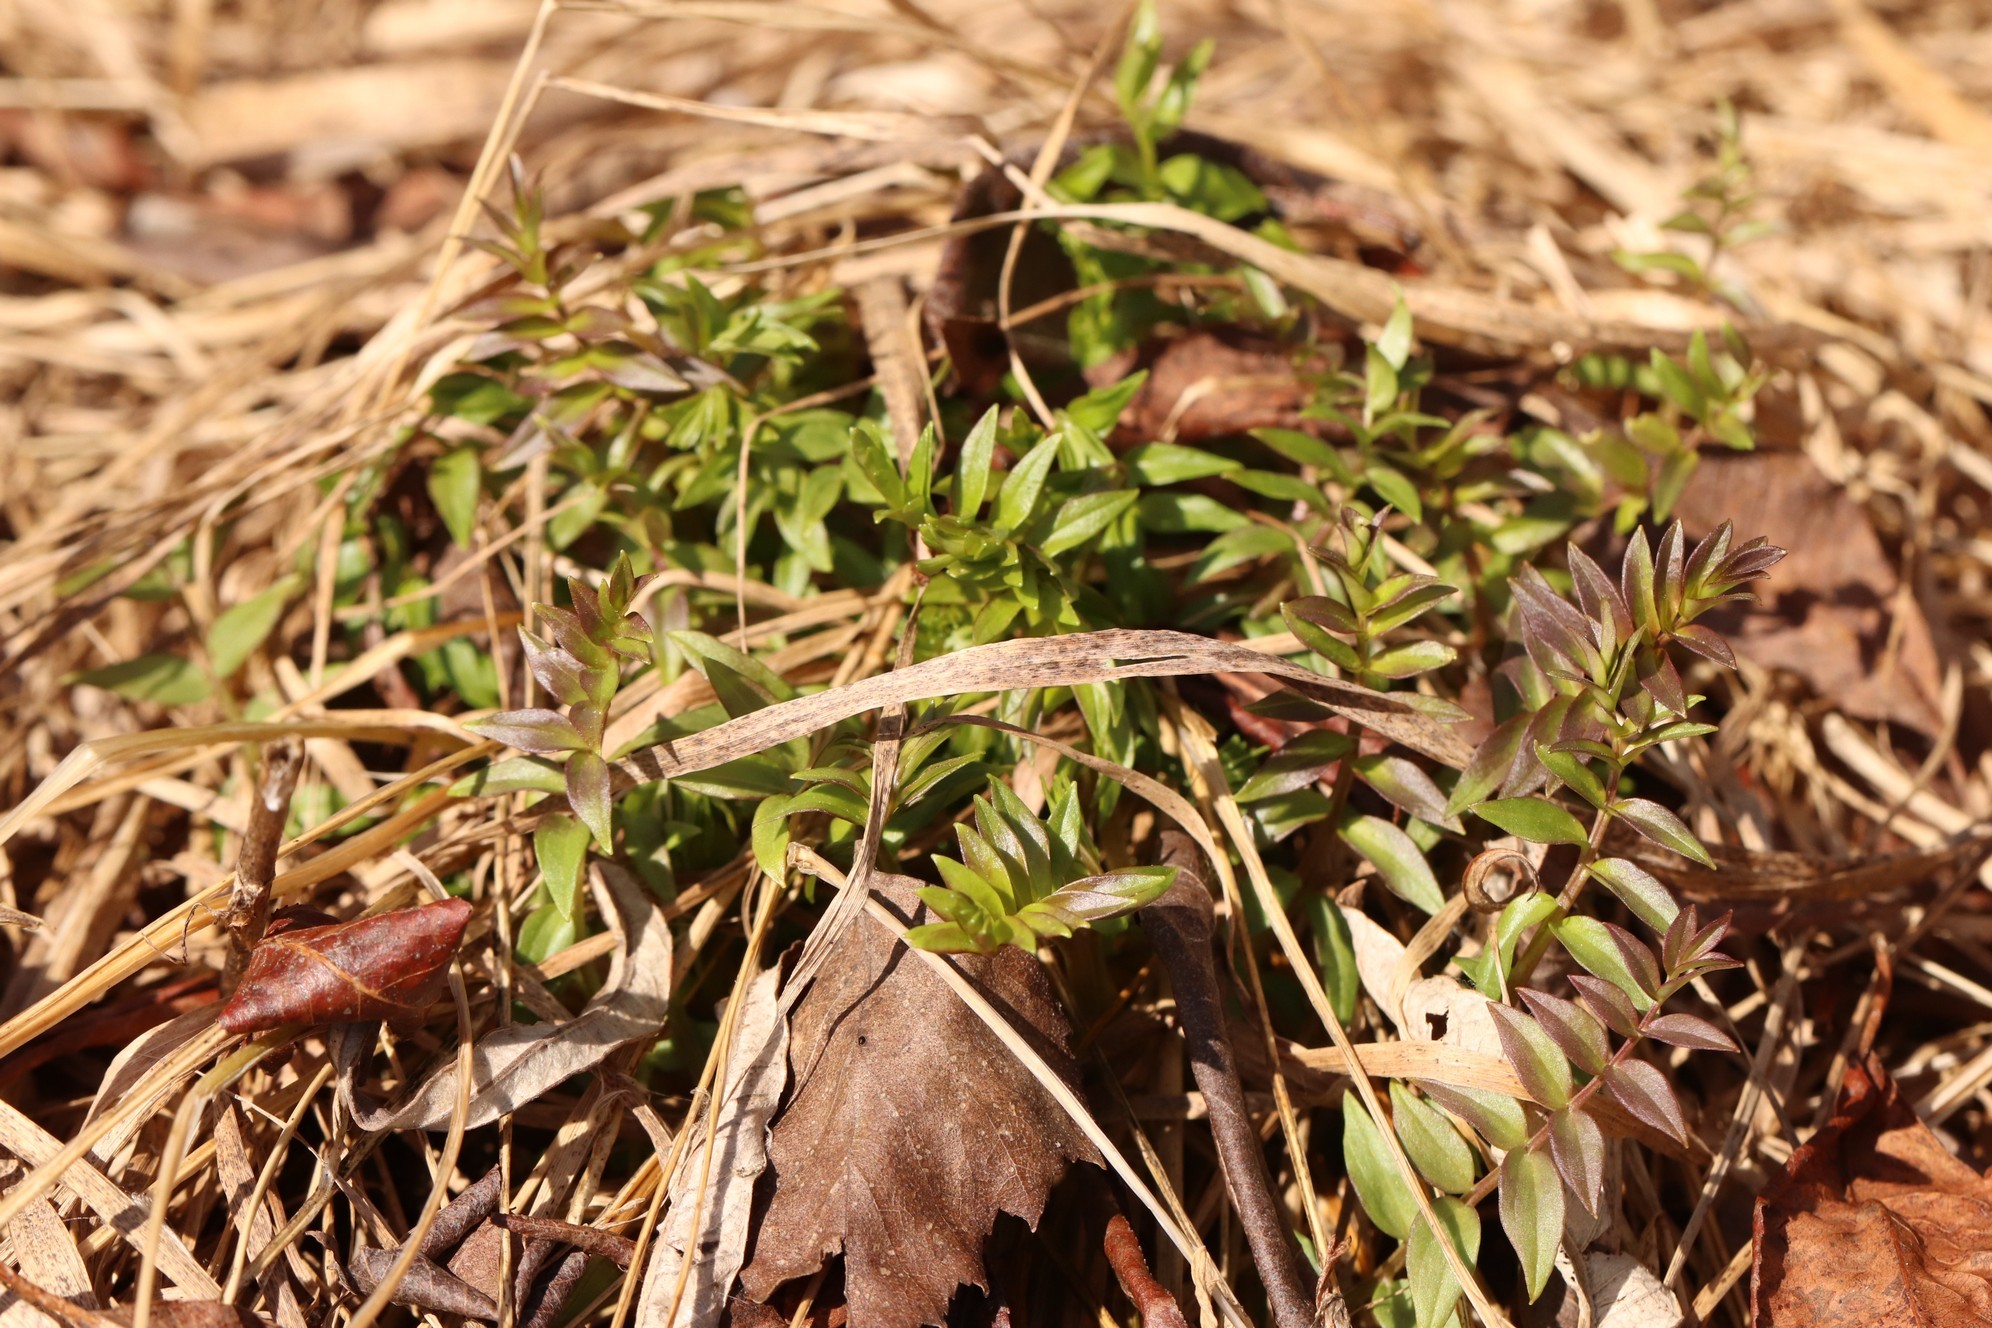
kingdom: Plantae
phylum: Tracheophyta
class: Magnoliopsida
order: Ericales
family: Polemoniaceae
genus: Polemonium
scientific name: Polemonium caeruleum
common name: Jacob's-ladder
